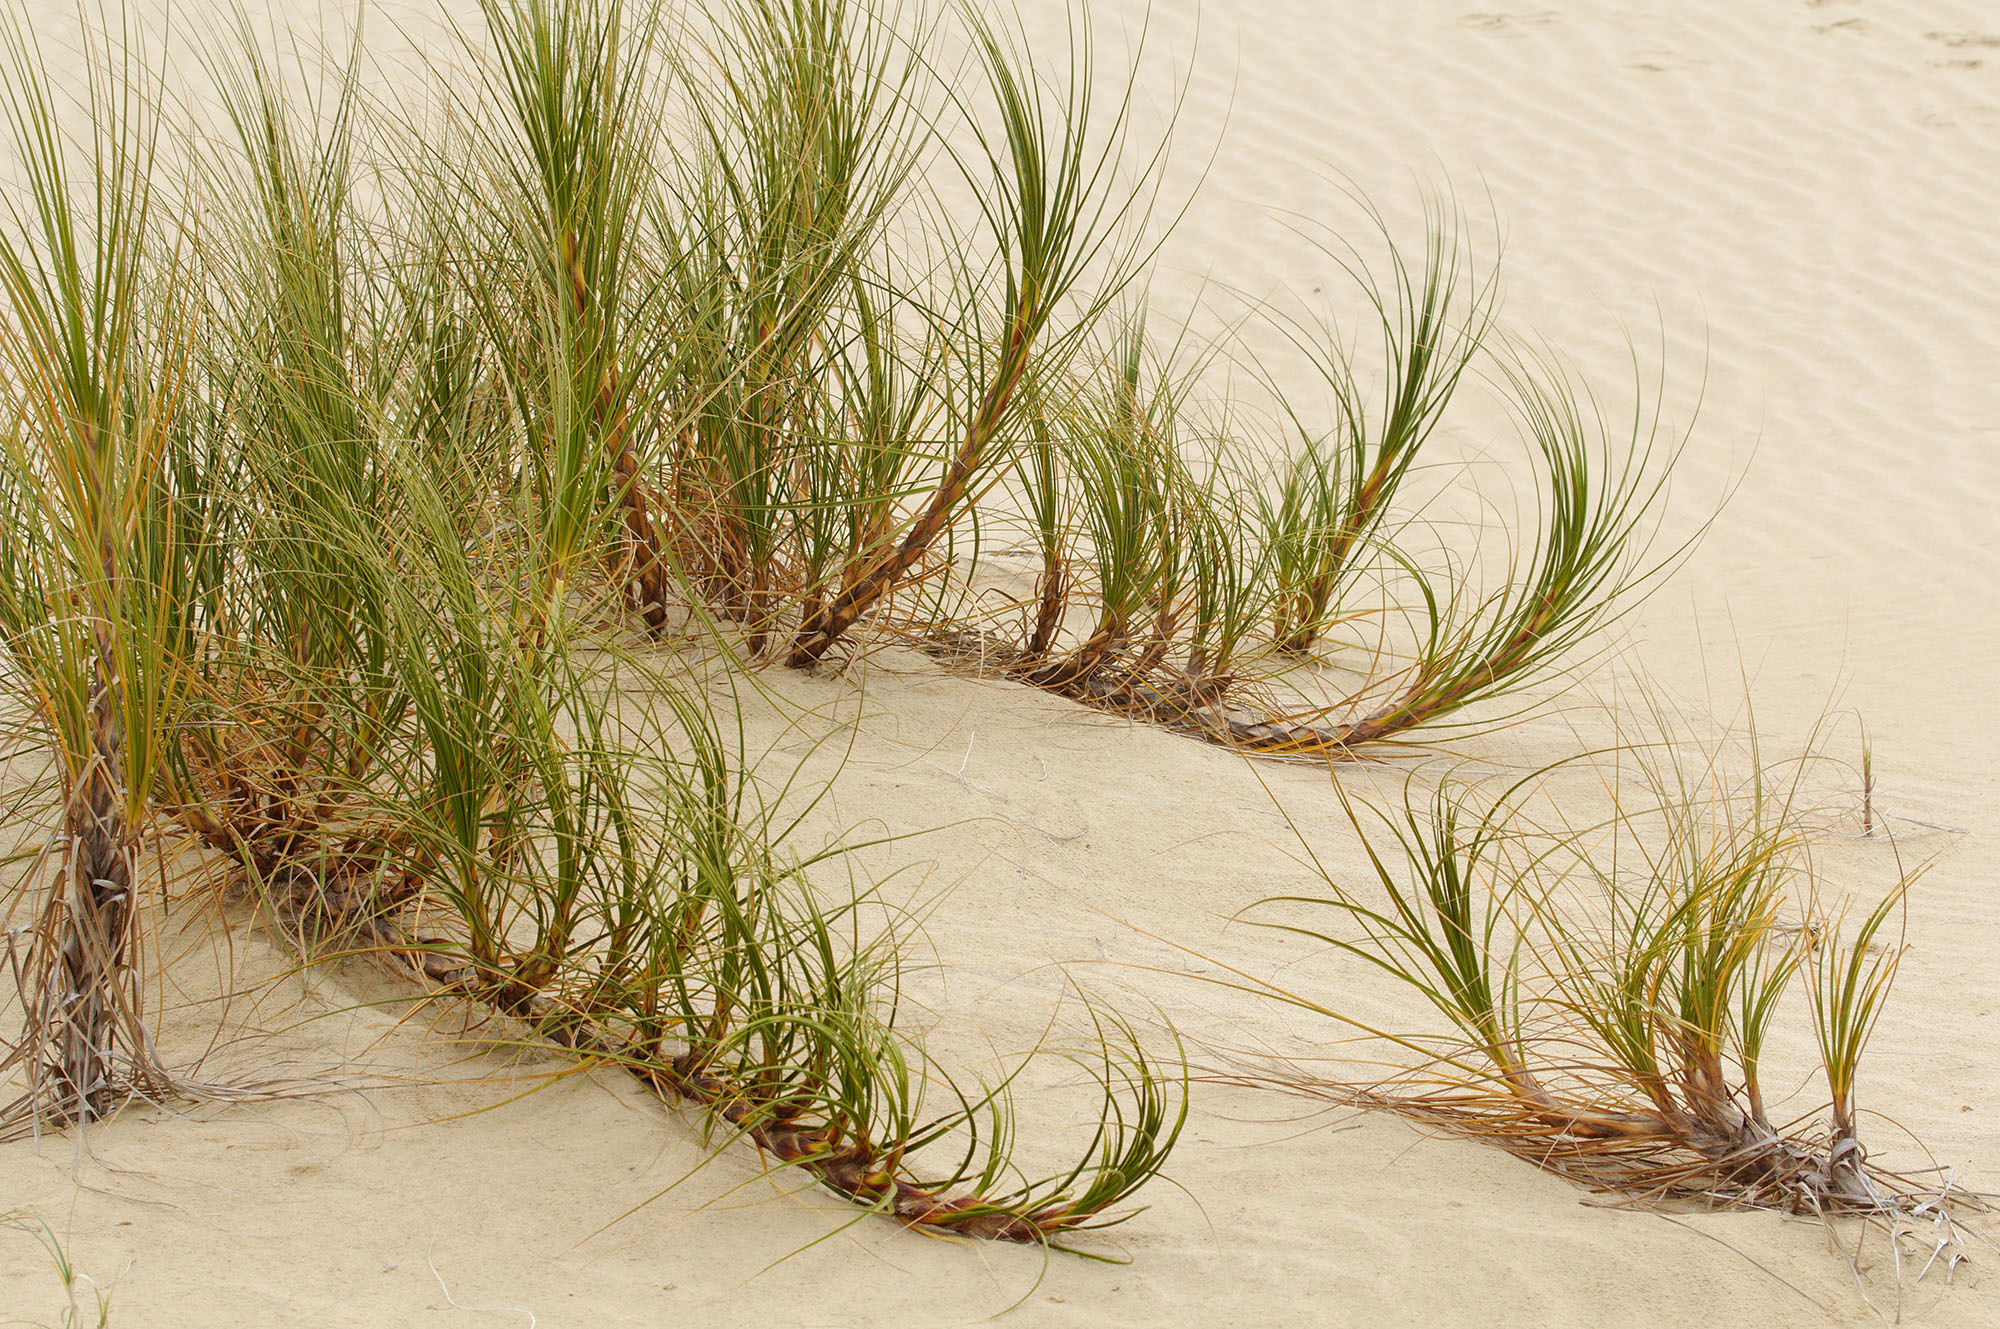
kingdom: Plantae
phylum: Tracheophyta
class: Liliopsida
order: Poales
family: Cyperaceae
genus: Ficinia
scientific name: Ficinia spiralis
